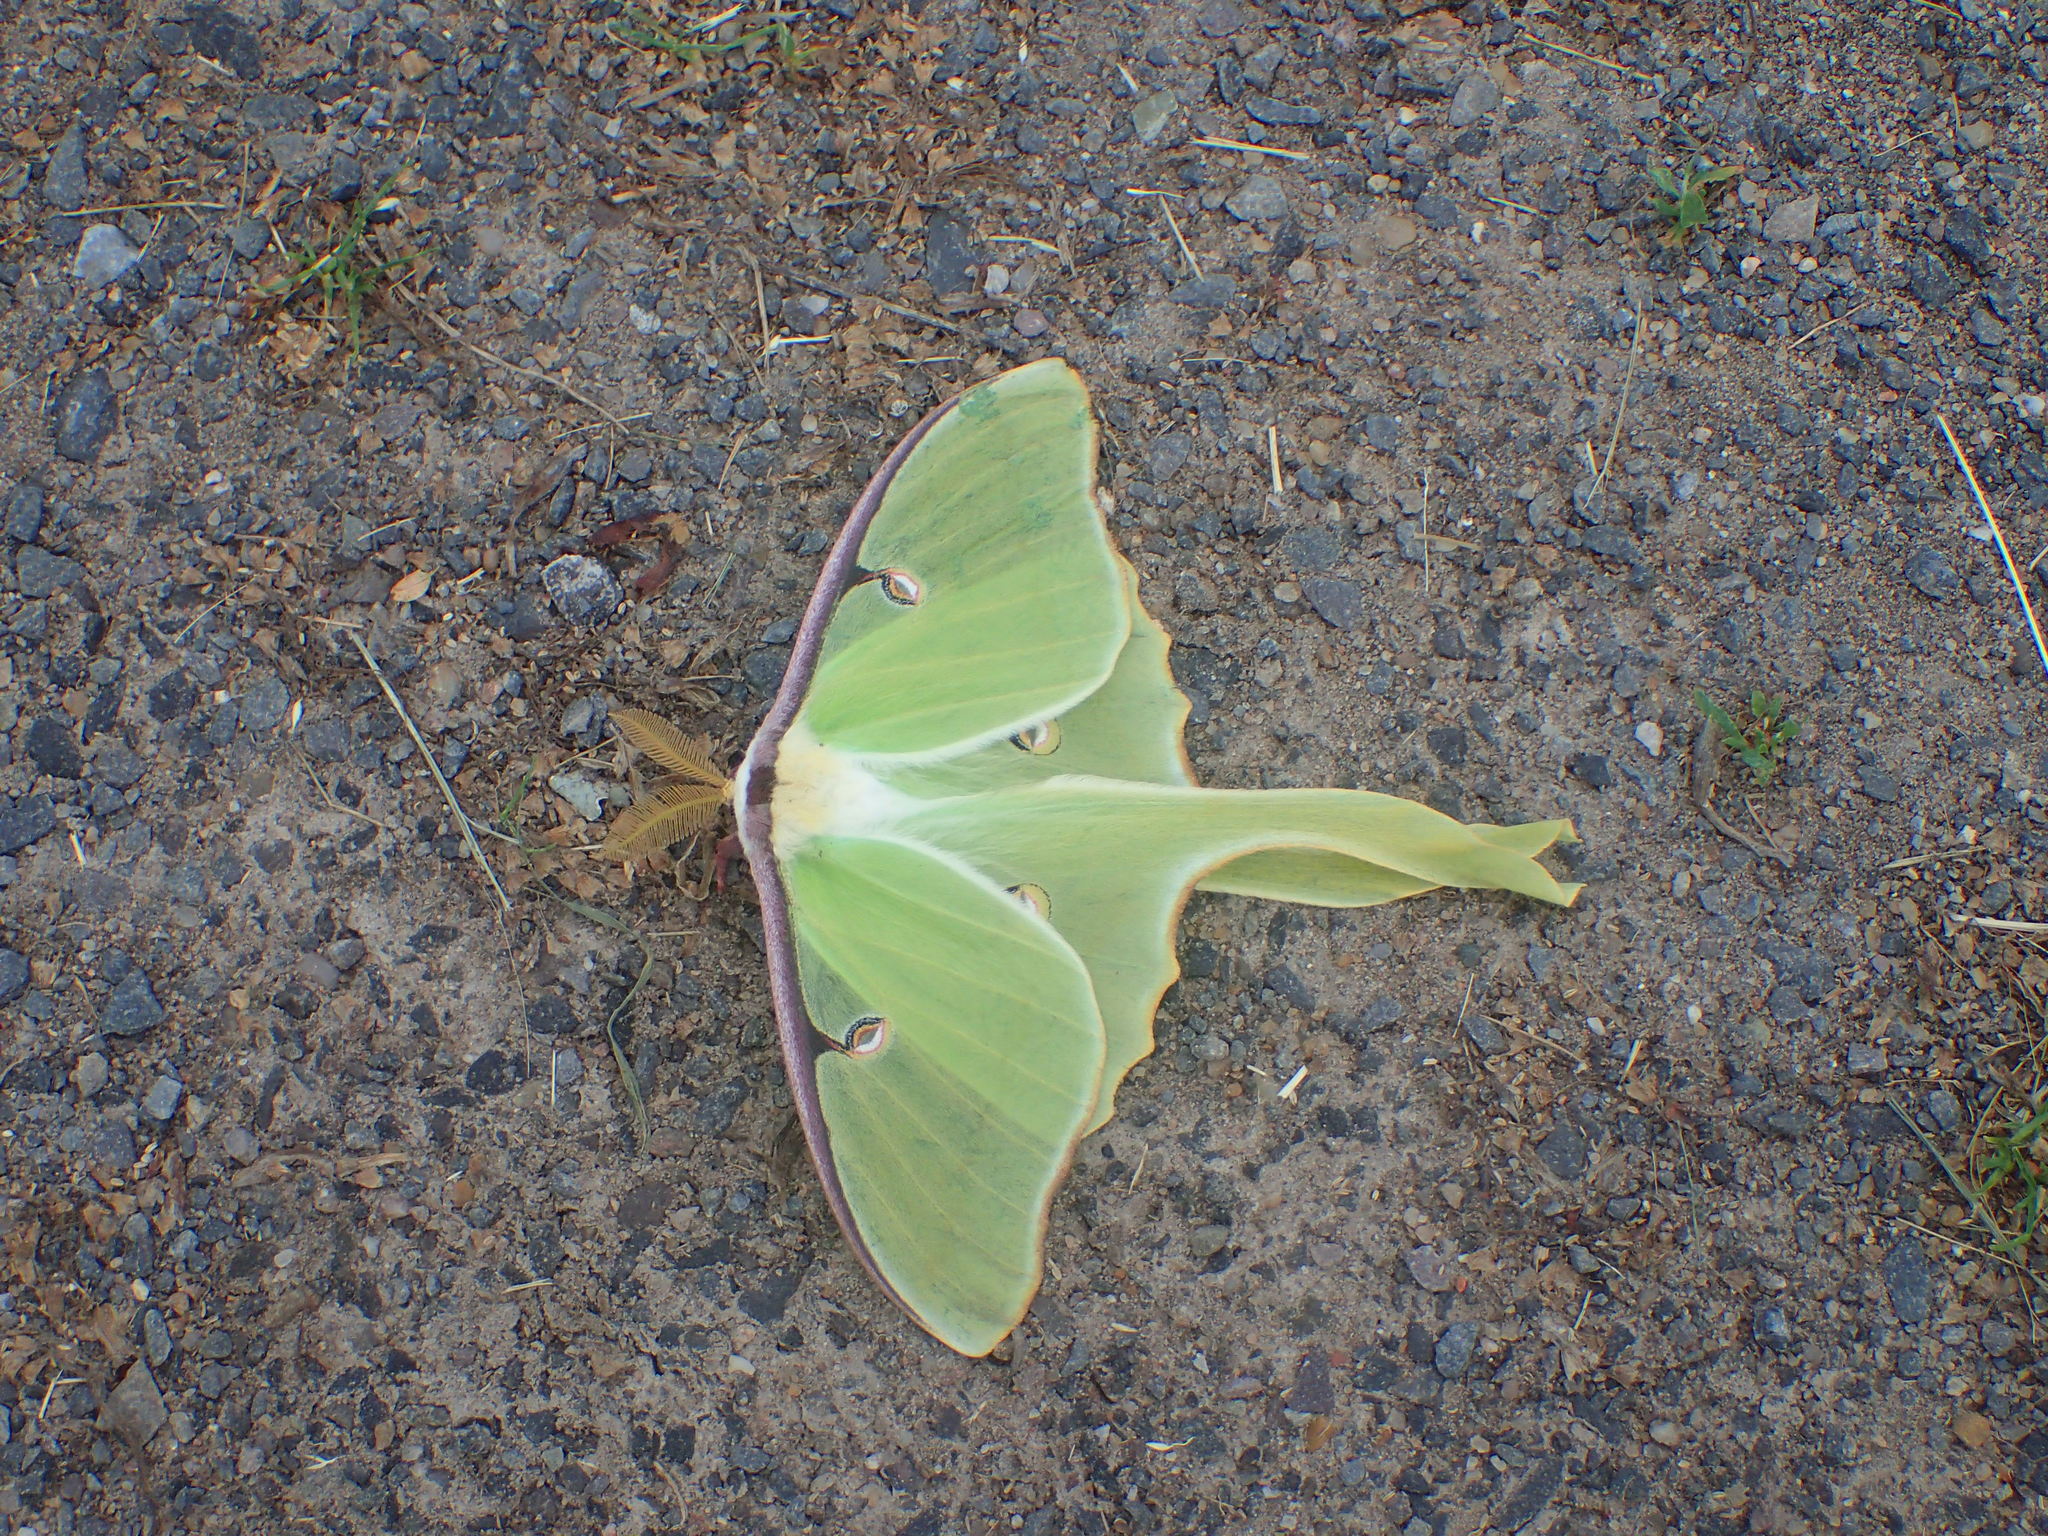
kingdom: Animalia
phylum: Arthropoda
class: Insecta
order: Lepidoptera
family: Saturniidae
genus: Actias
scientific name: Actias luna
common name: Luna moth
